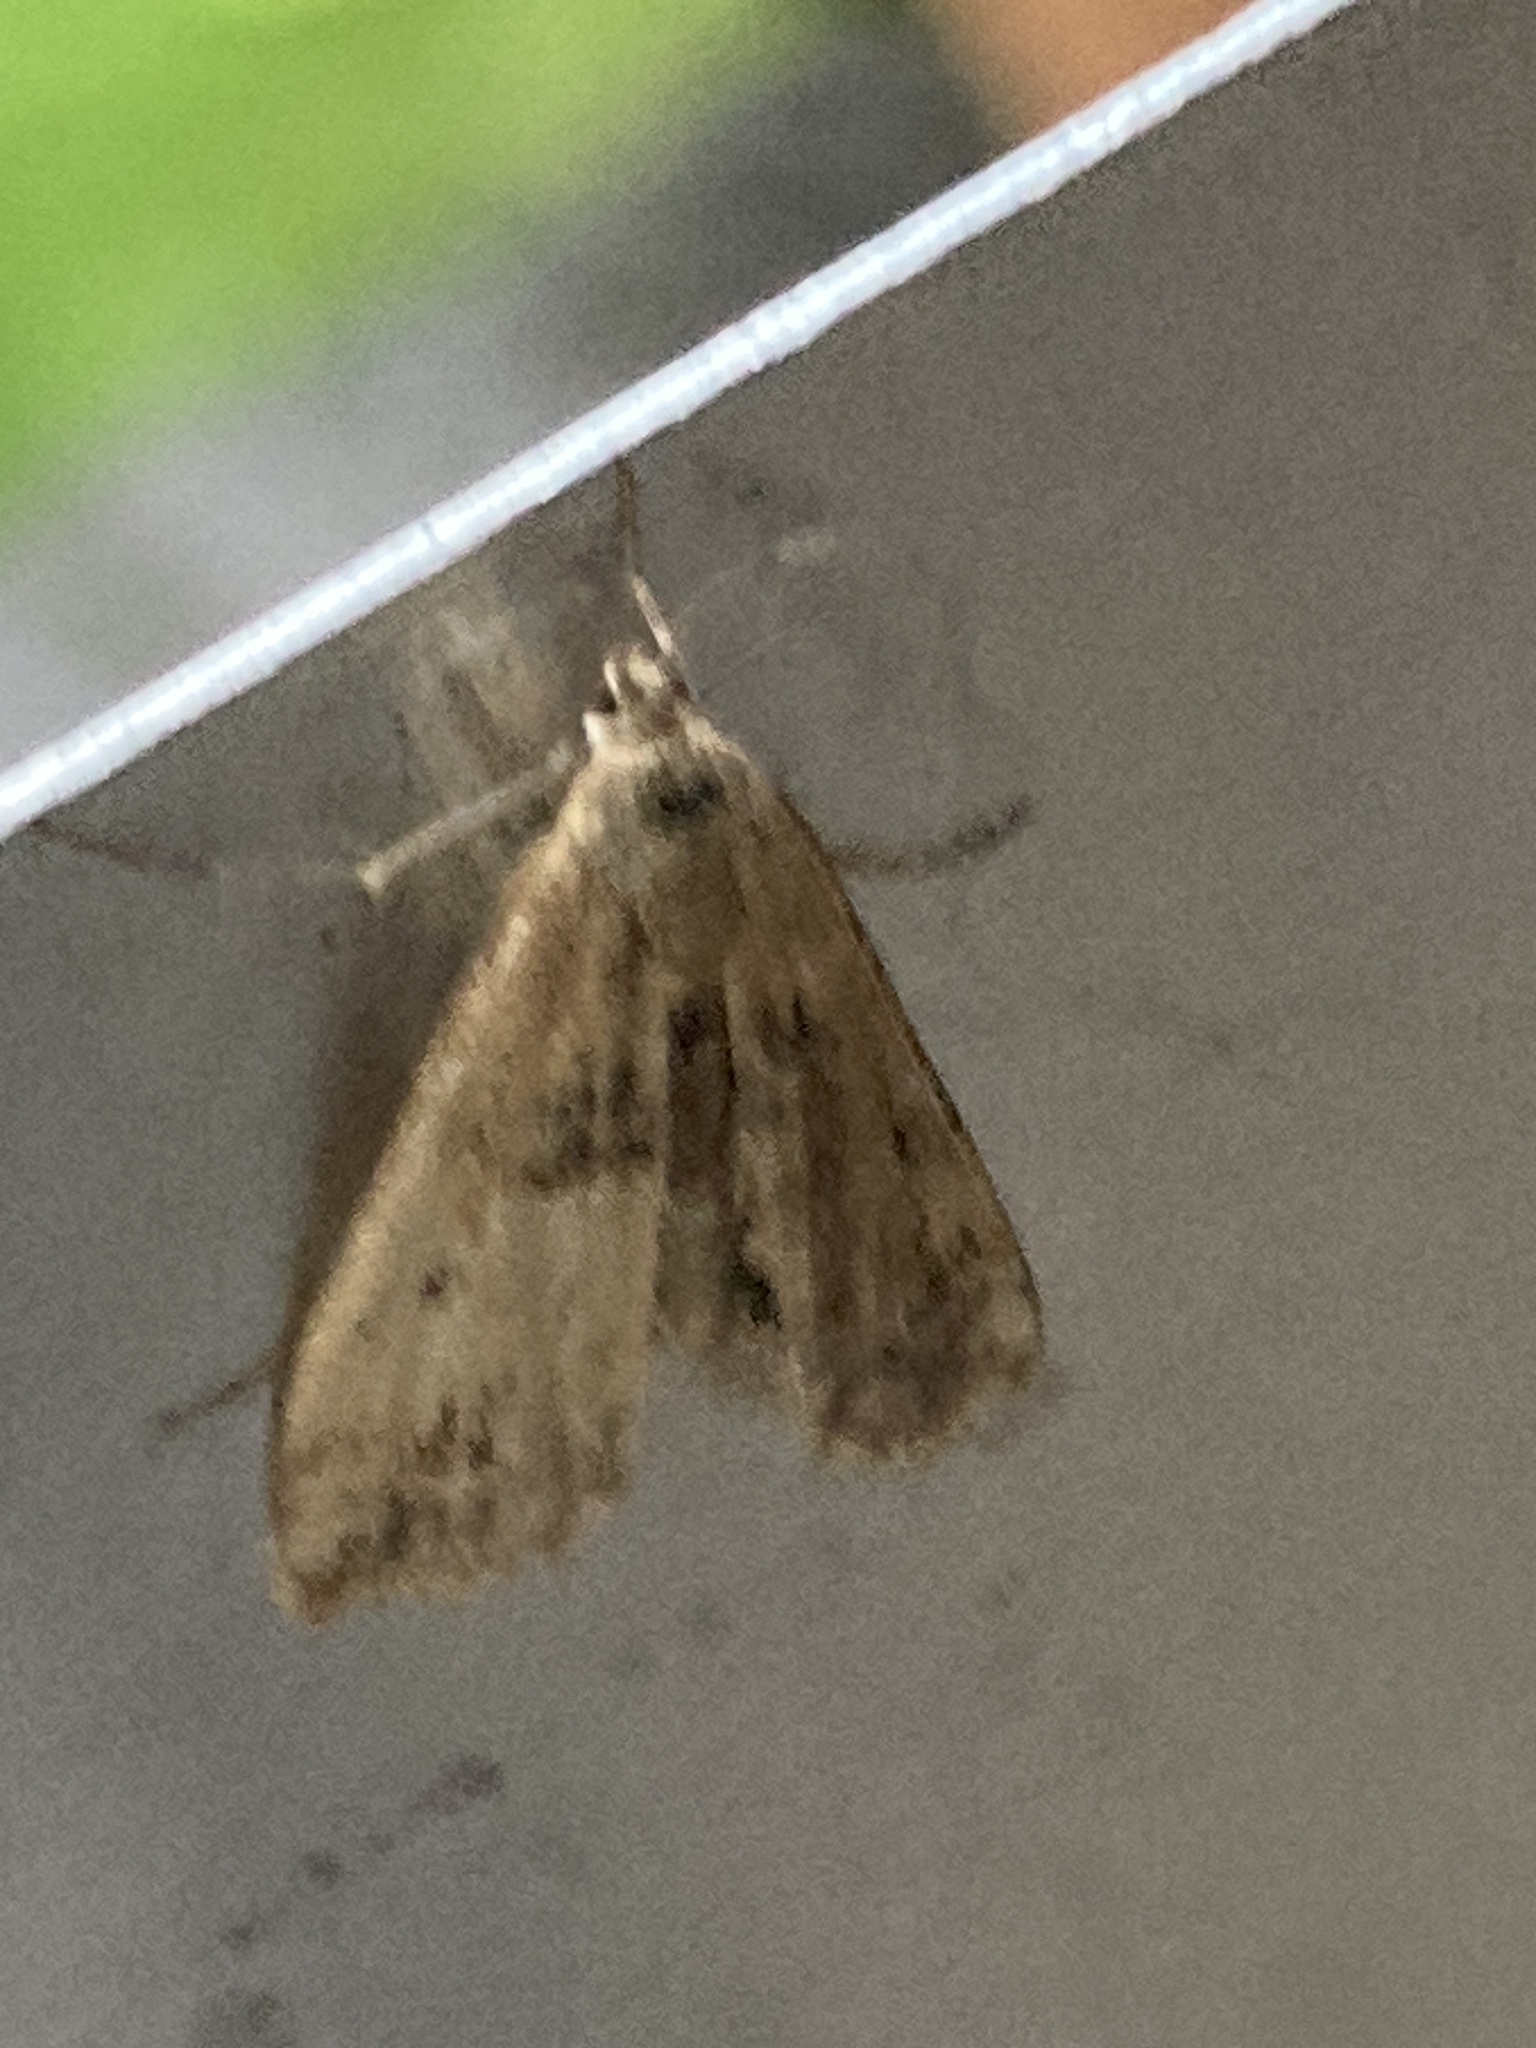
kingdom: Animalia
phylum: Arthropoda
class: Insecta
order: Lepidoptera
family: Crambidae
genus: Cataclysta
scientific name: Cataclysta lemnata
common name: Small china-mark
